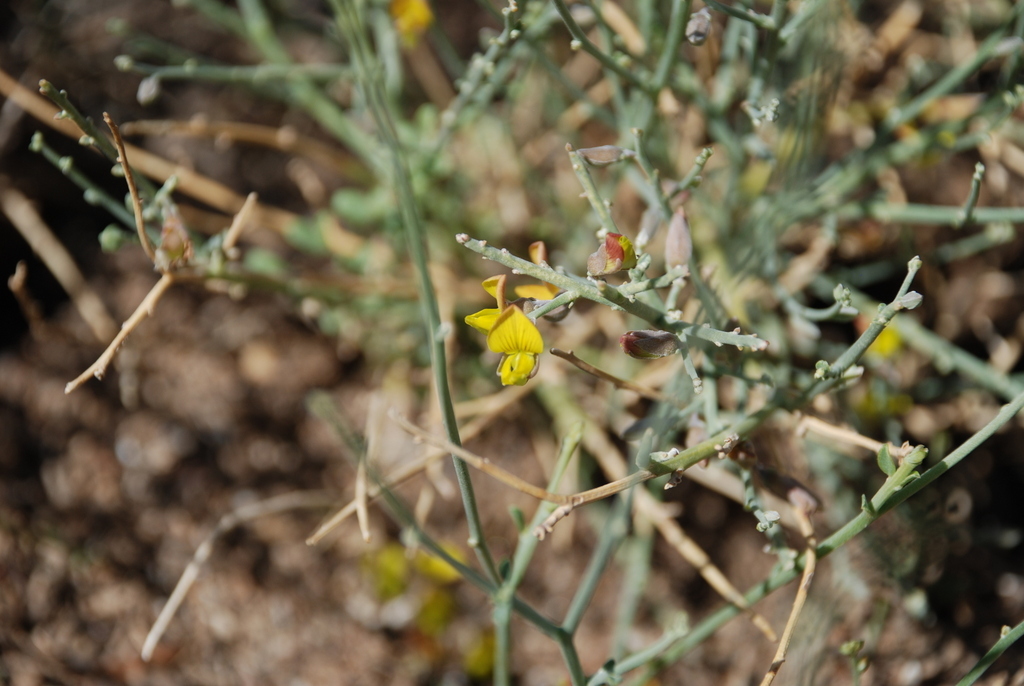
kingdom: Plantae
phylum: Tracheophyta
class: Magnoliopsida
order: Fabales
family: Fabaceae
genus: Crotalaria
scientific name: Crotalaria aegyptiaca
